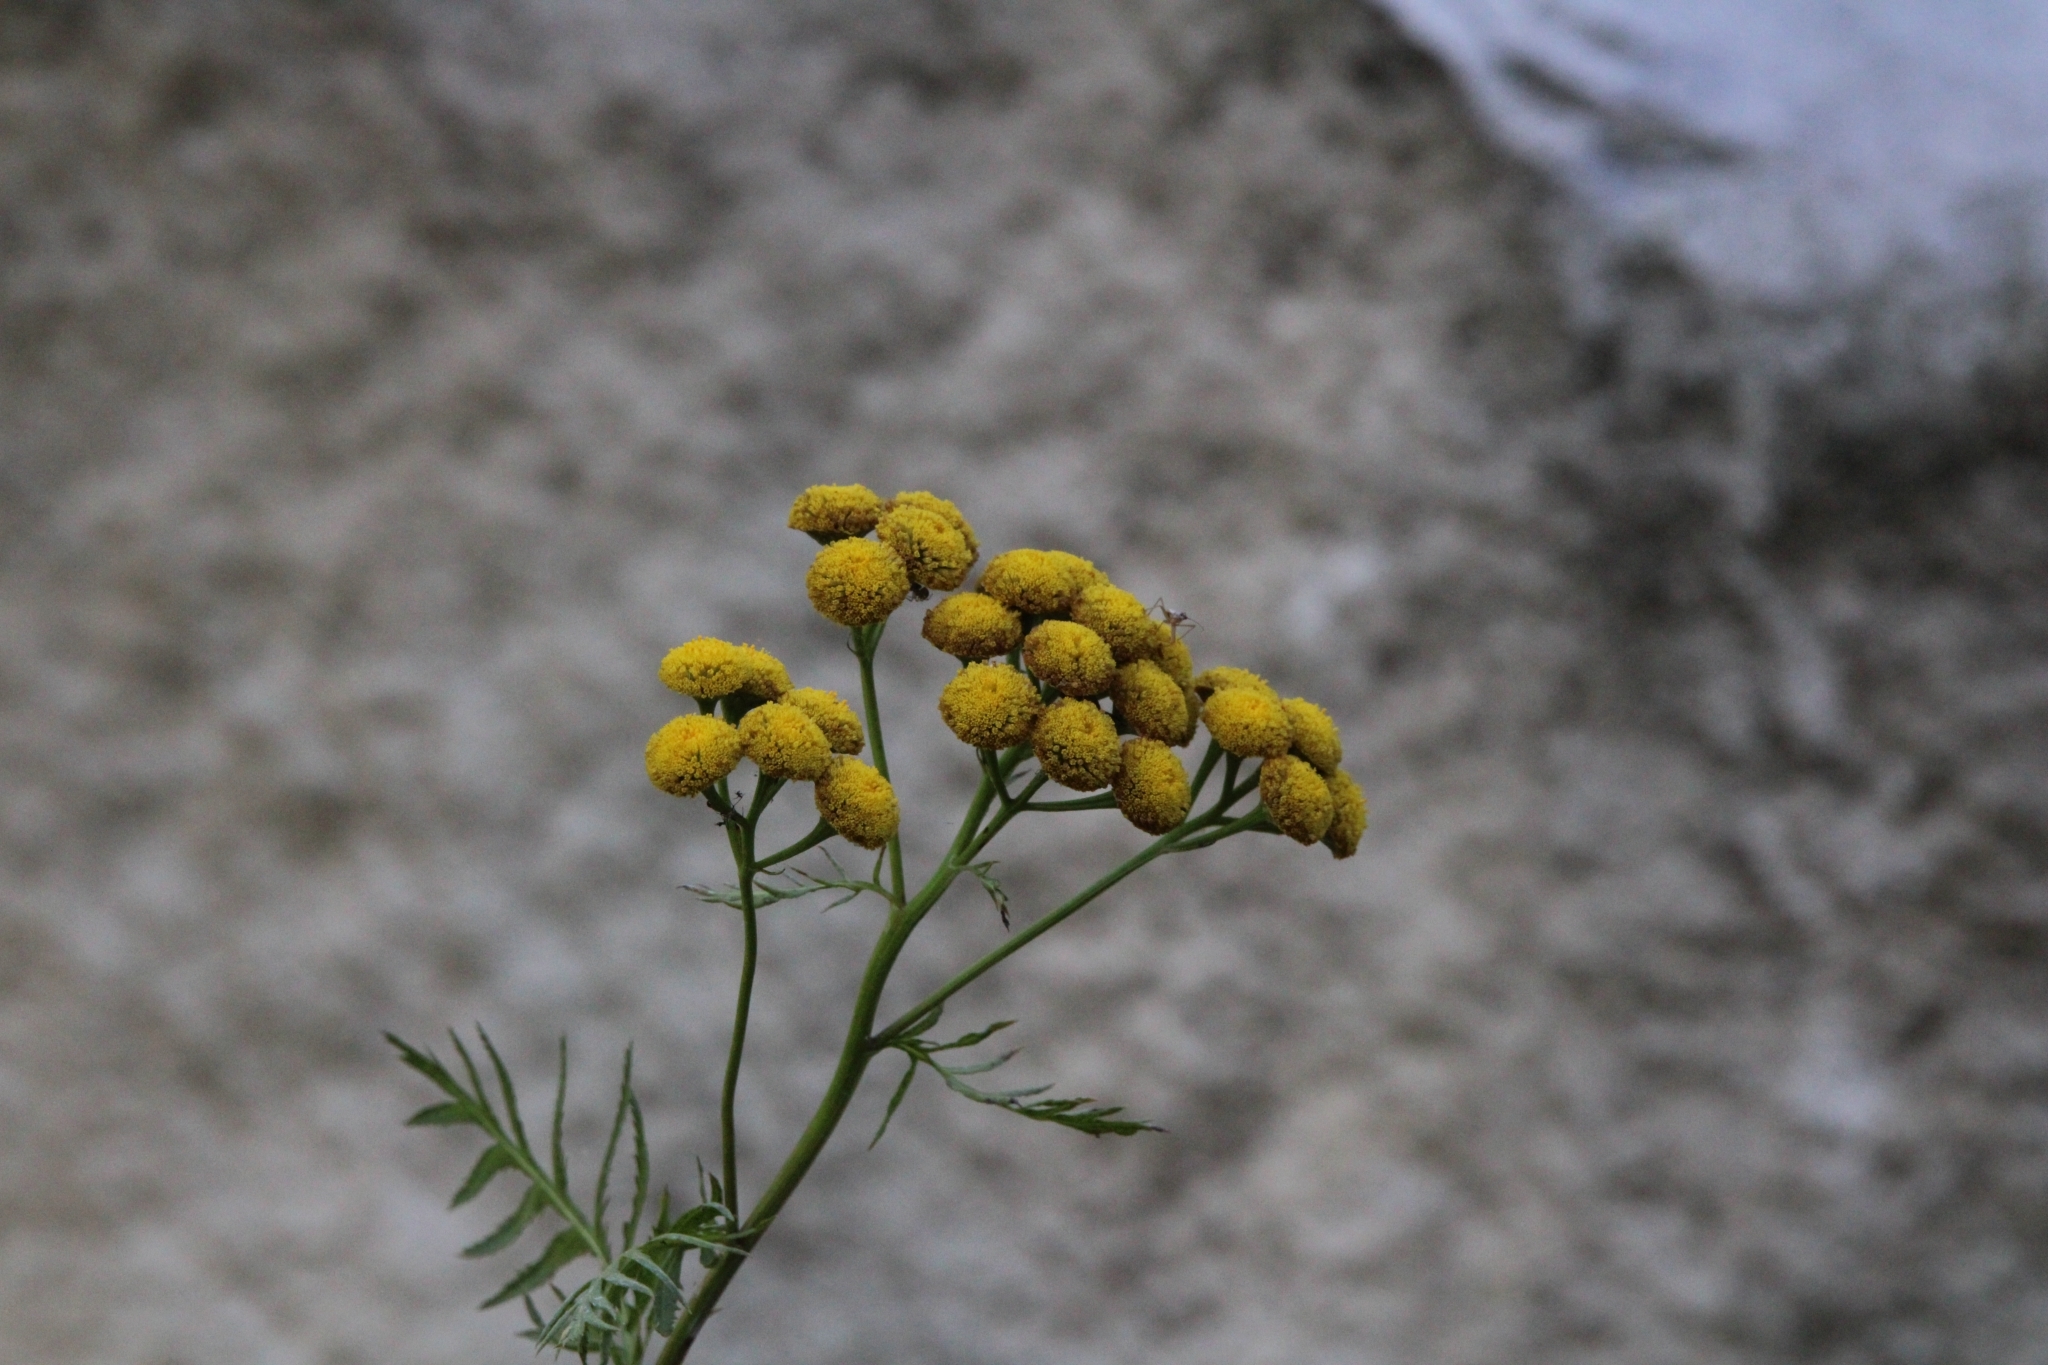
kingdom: Plantae
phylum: Tracheophyta
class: Magnoliopsida
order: Asterales
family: Asteraceae
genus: Tanacetum
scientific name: Tanacetum vulgare
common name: Common tansy
